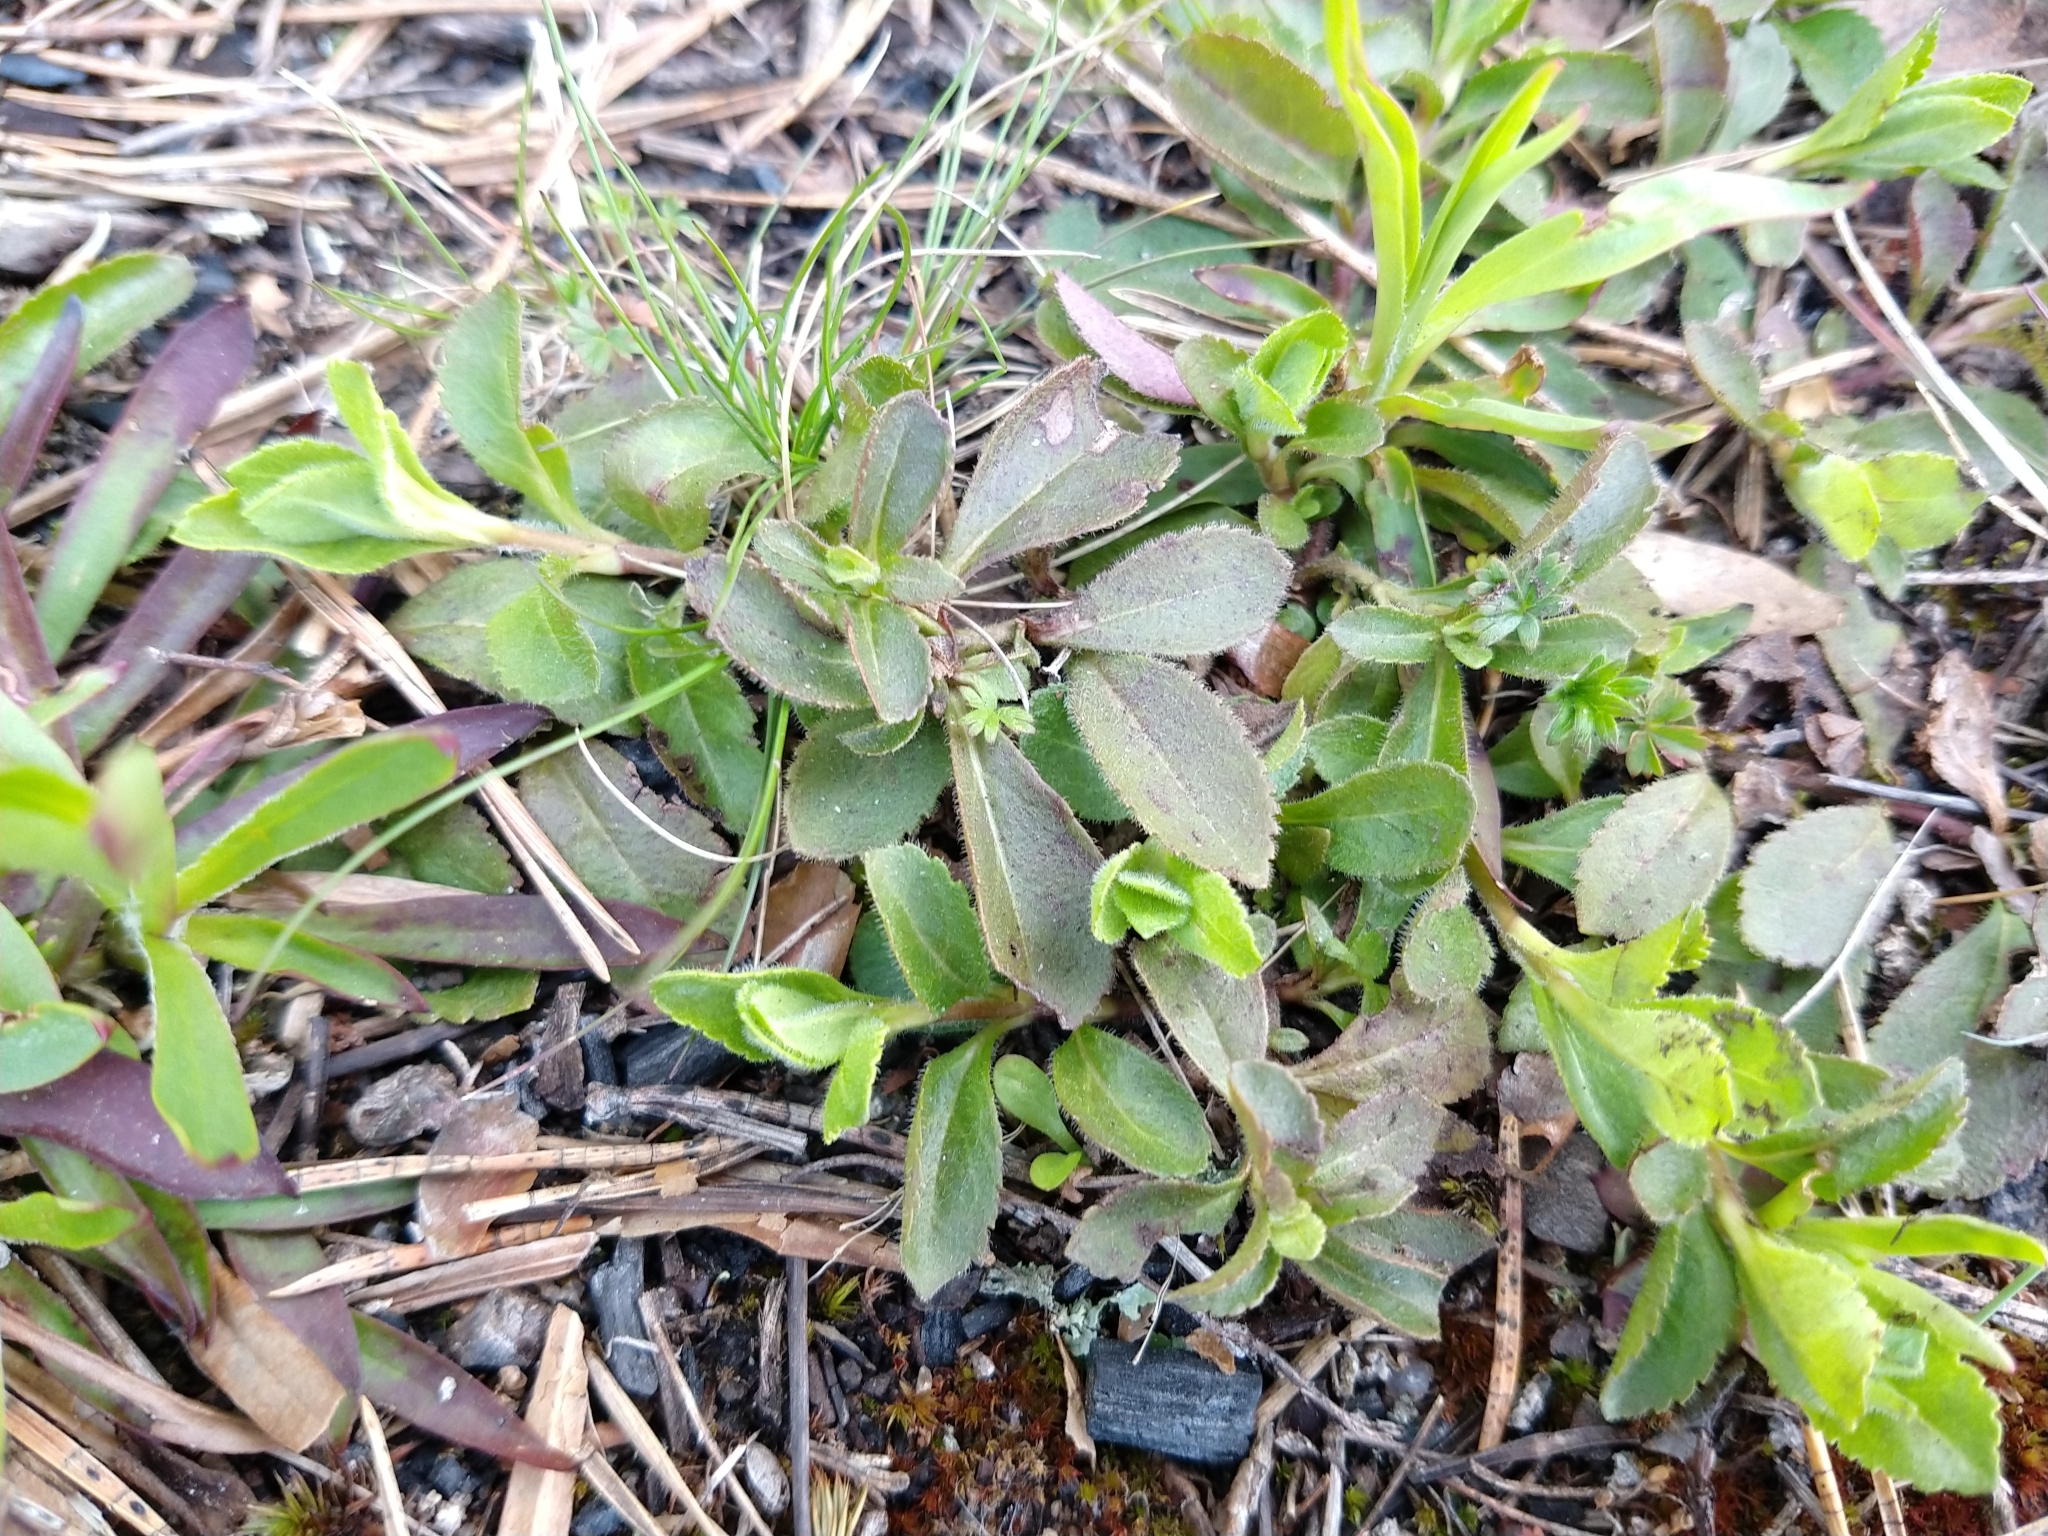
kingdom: Plantae
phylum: Tracheophyta
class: Magnoliopsida
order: Lamiales
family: Plantaginaceae
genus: Veronica
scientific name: Veronica officinalis
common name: Common speedwell
